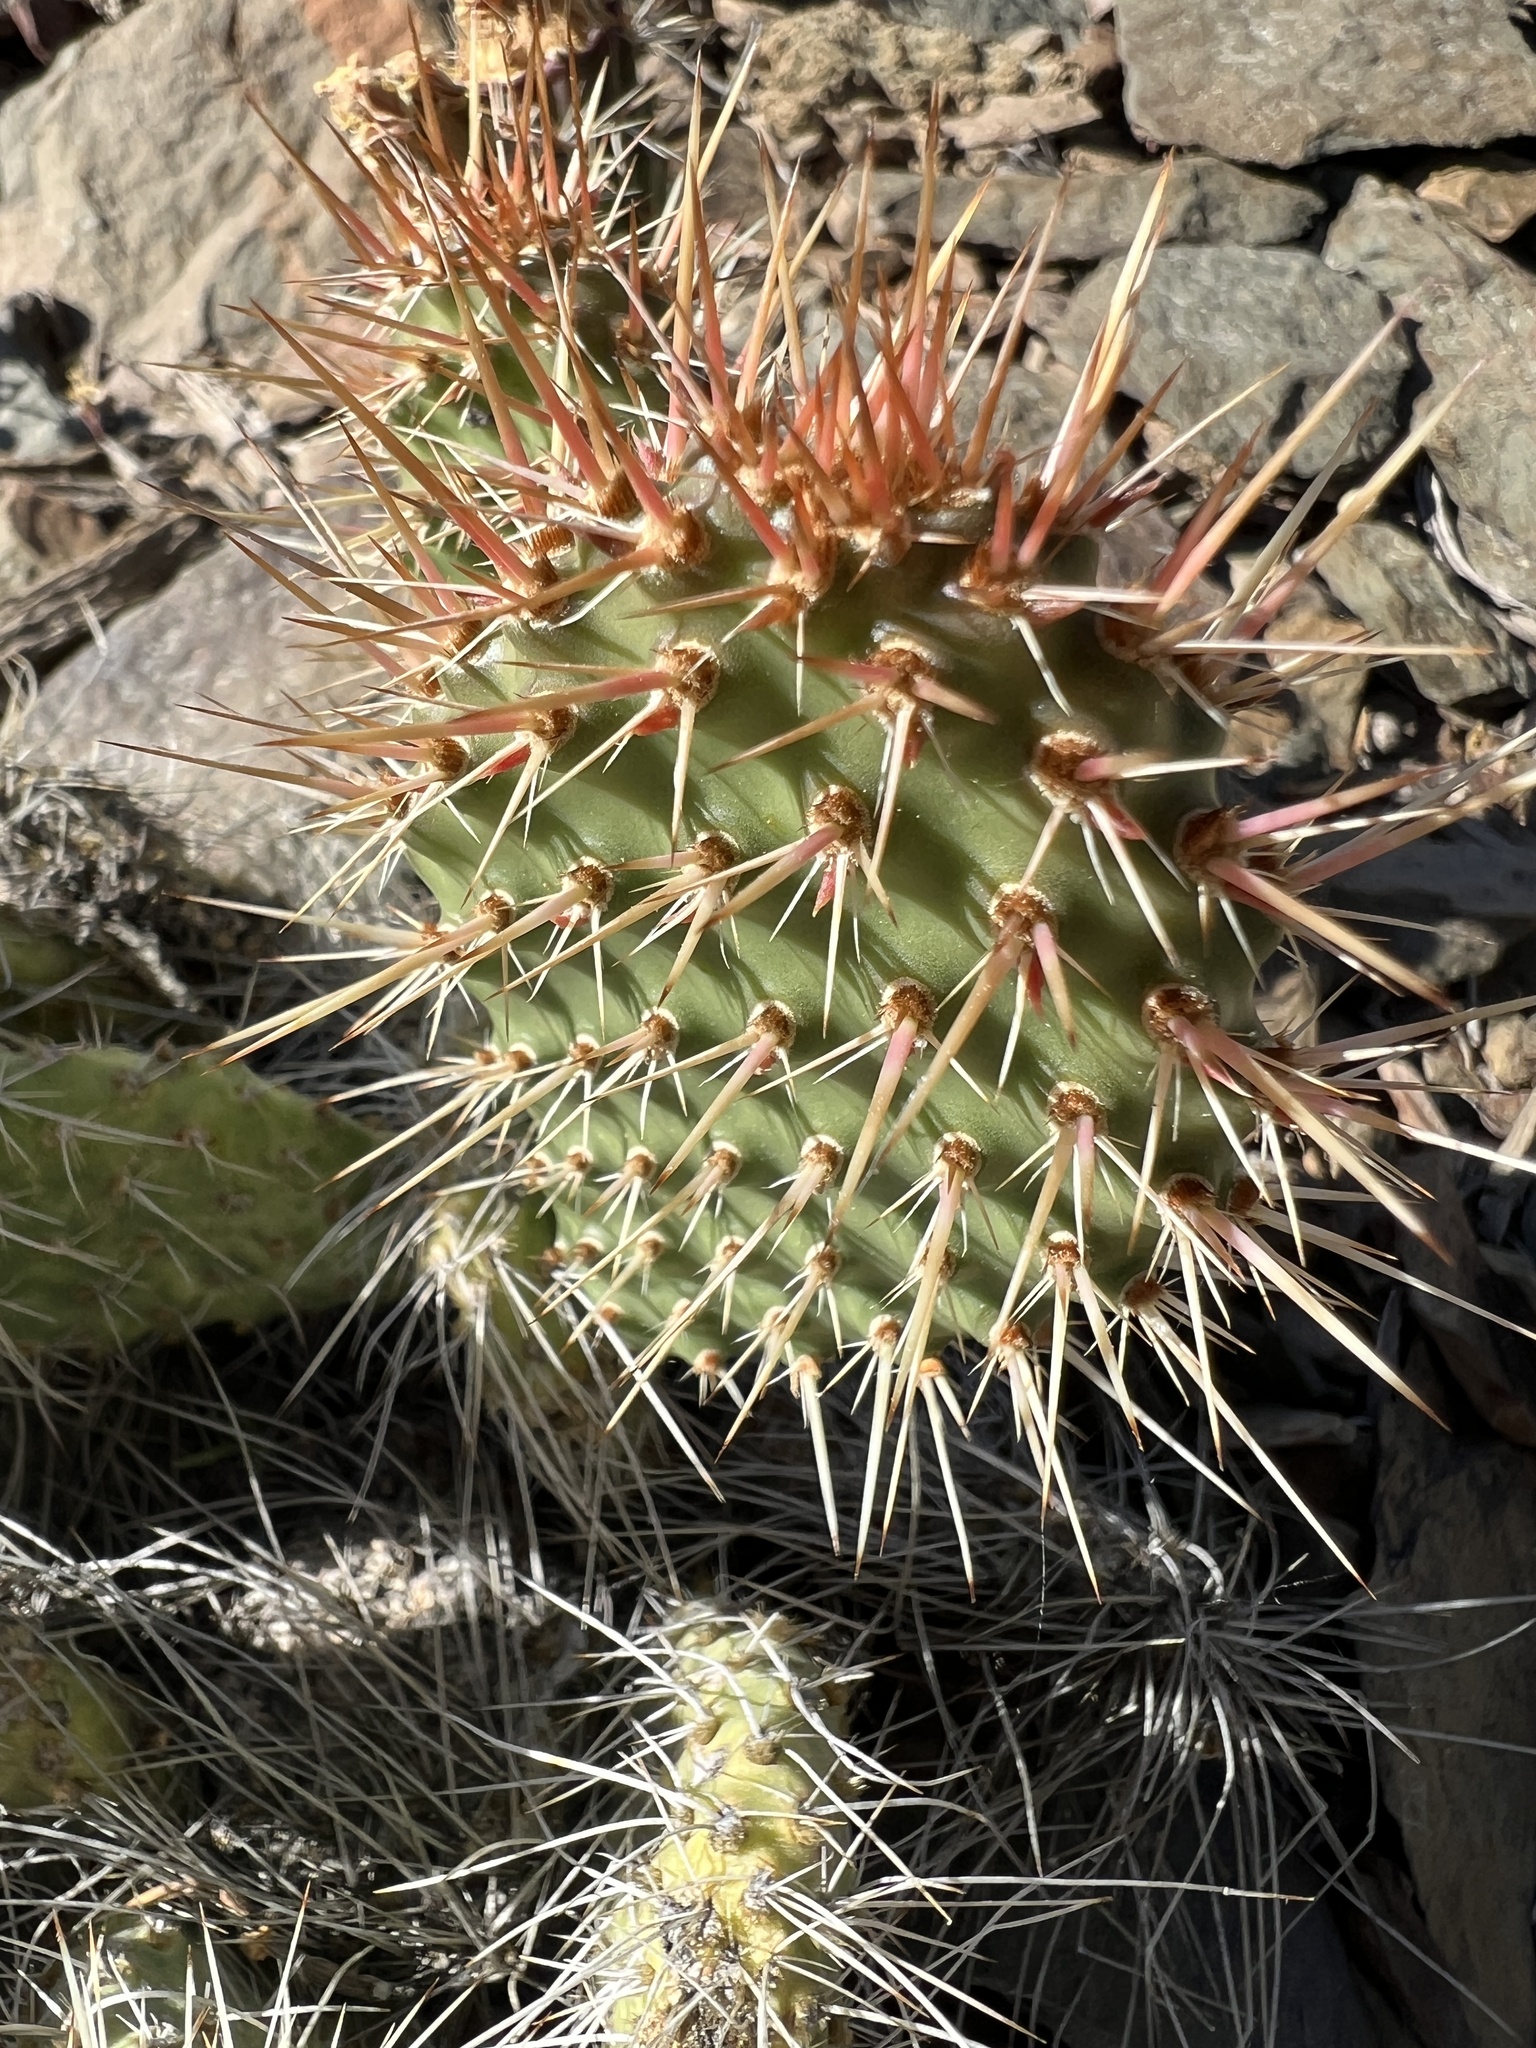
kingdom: Plantae
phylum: Tracheophyta
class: Magnoliopsida
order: Caryophyllales
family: Cactaceae
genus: Opuntia
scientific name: Opuntia polyacantha
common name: Plains prickly-pear
